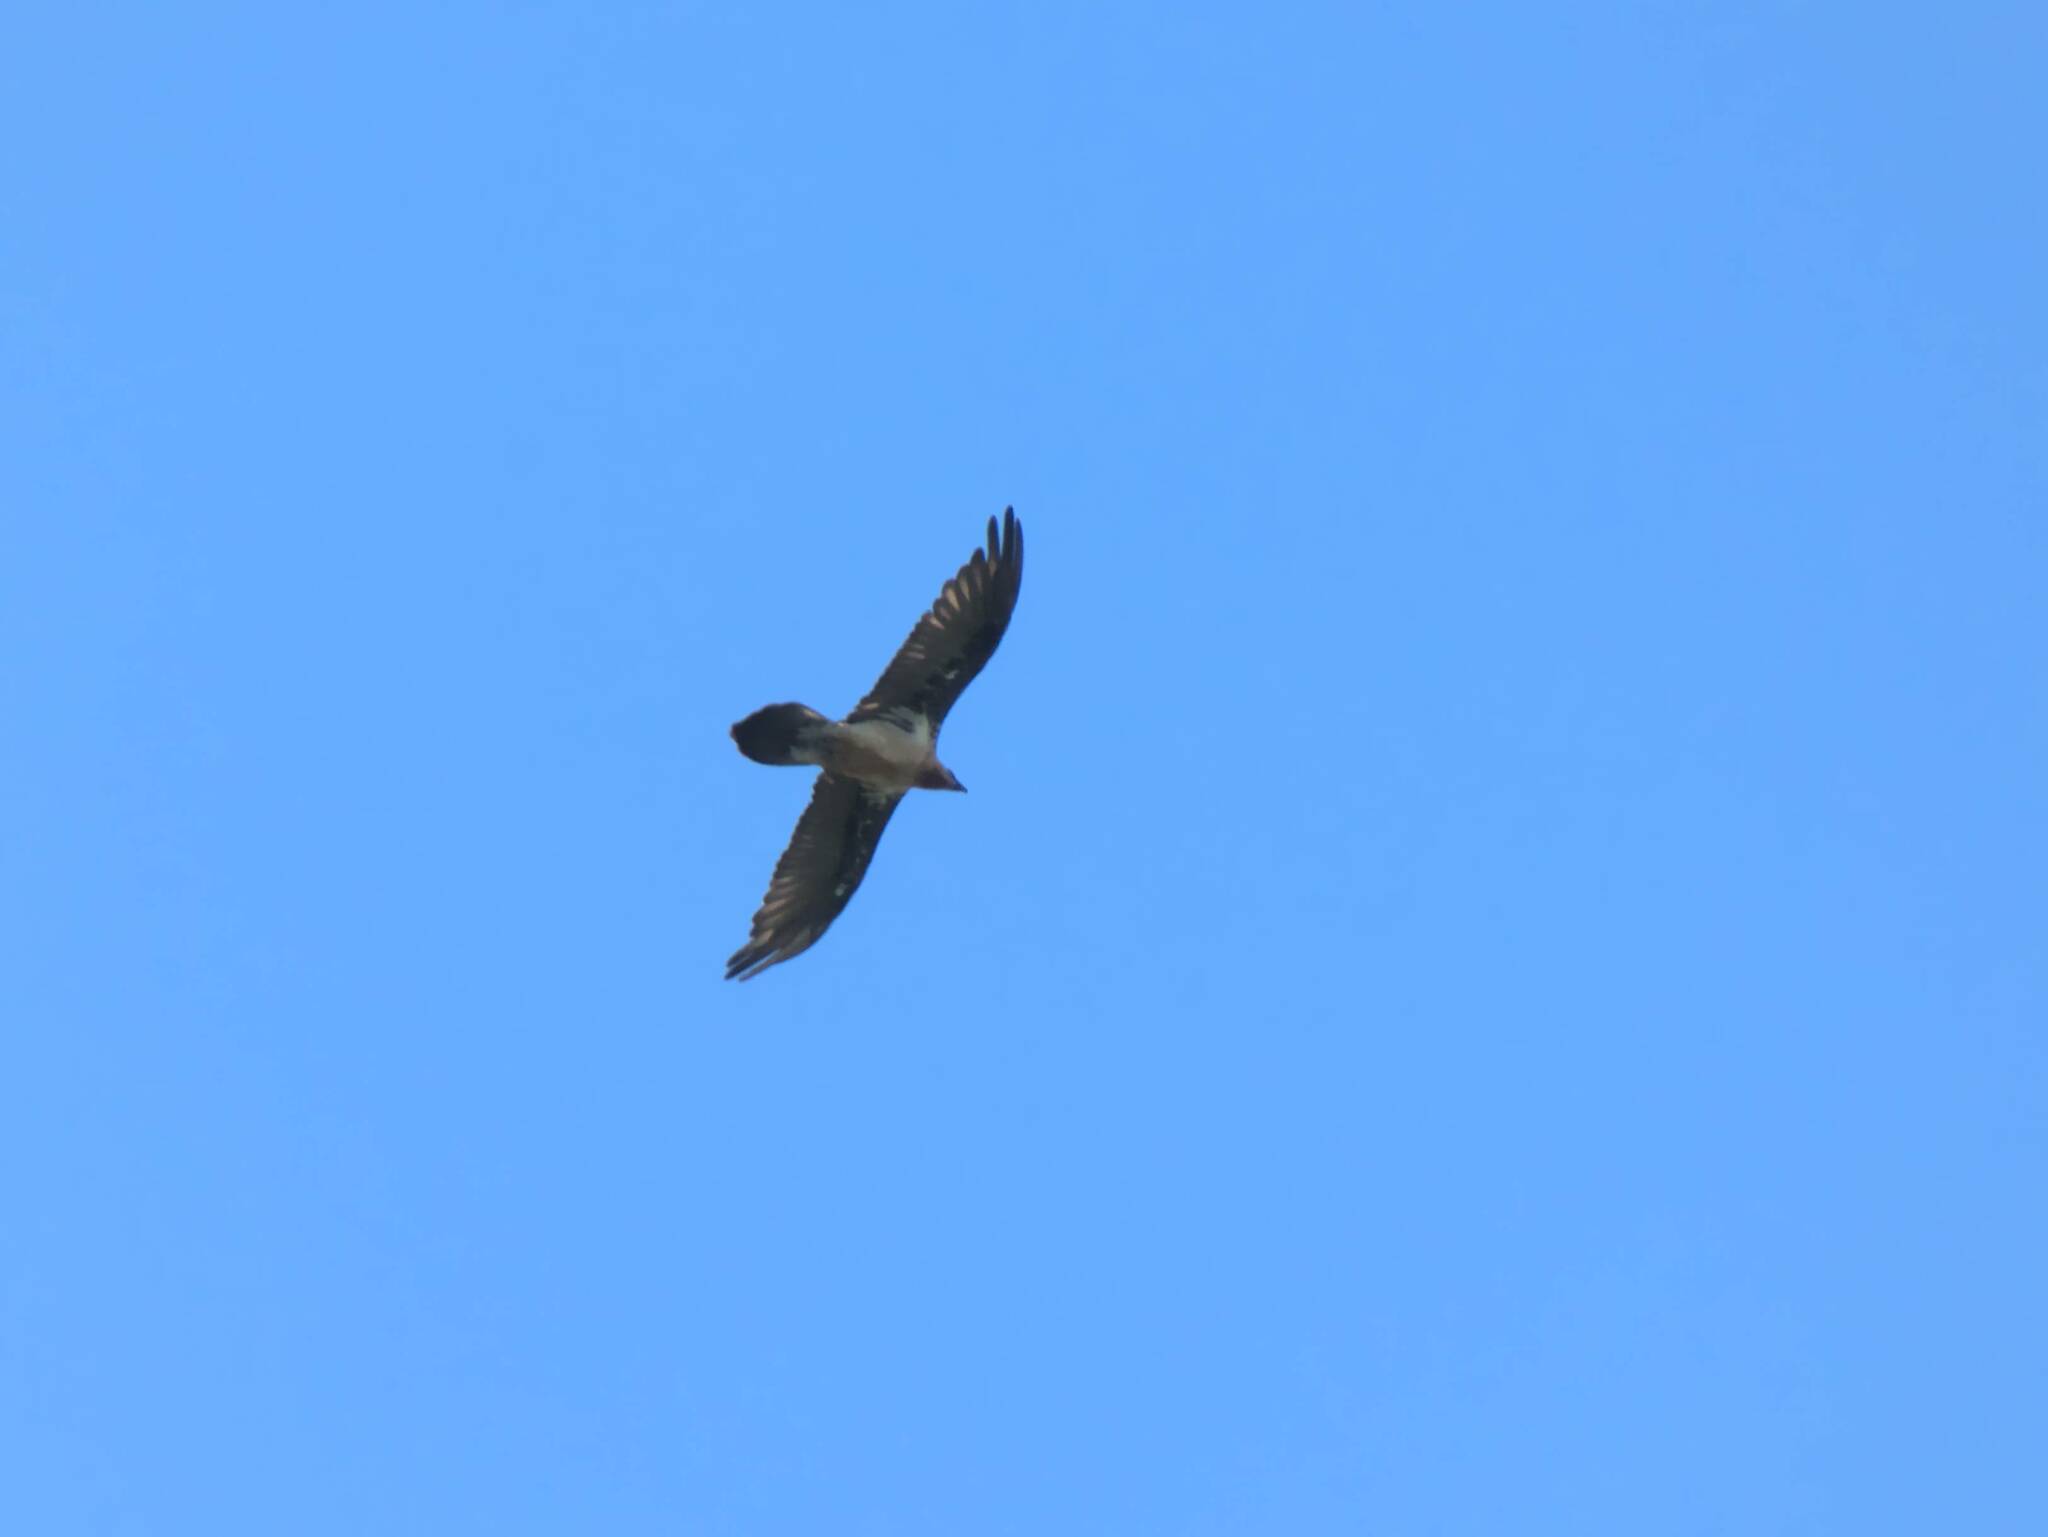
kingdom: Animalia
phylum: Chordata
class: Aves
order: Accipitriformes
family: Accipitridae
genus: Gypaetus
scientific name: Gypaetus barbatus
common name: Bearded vulture
